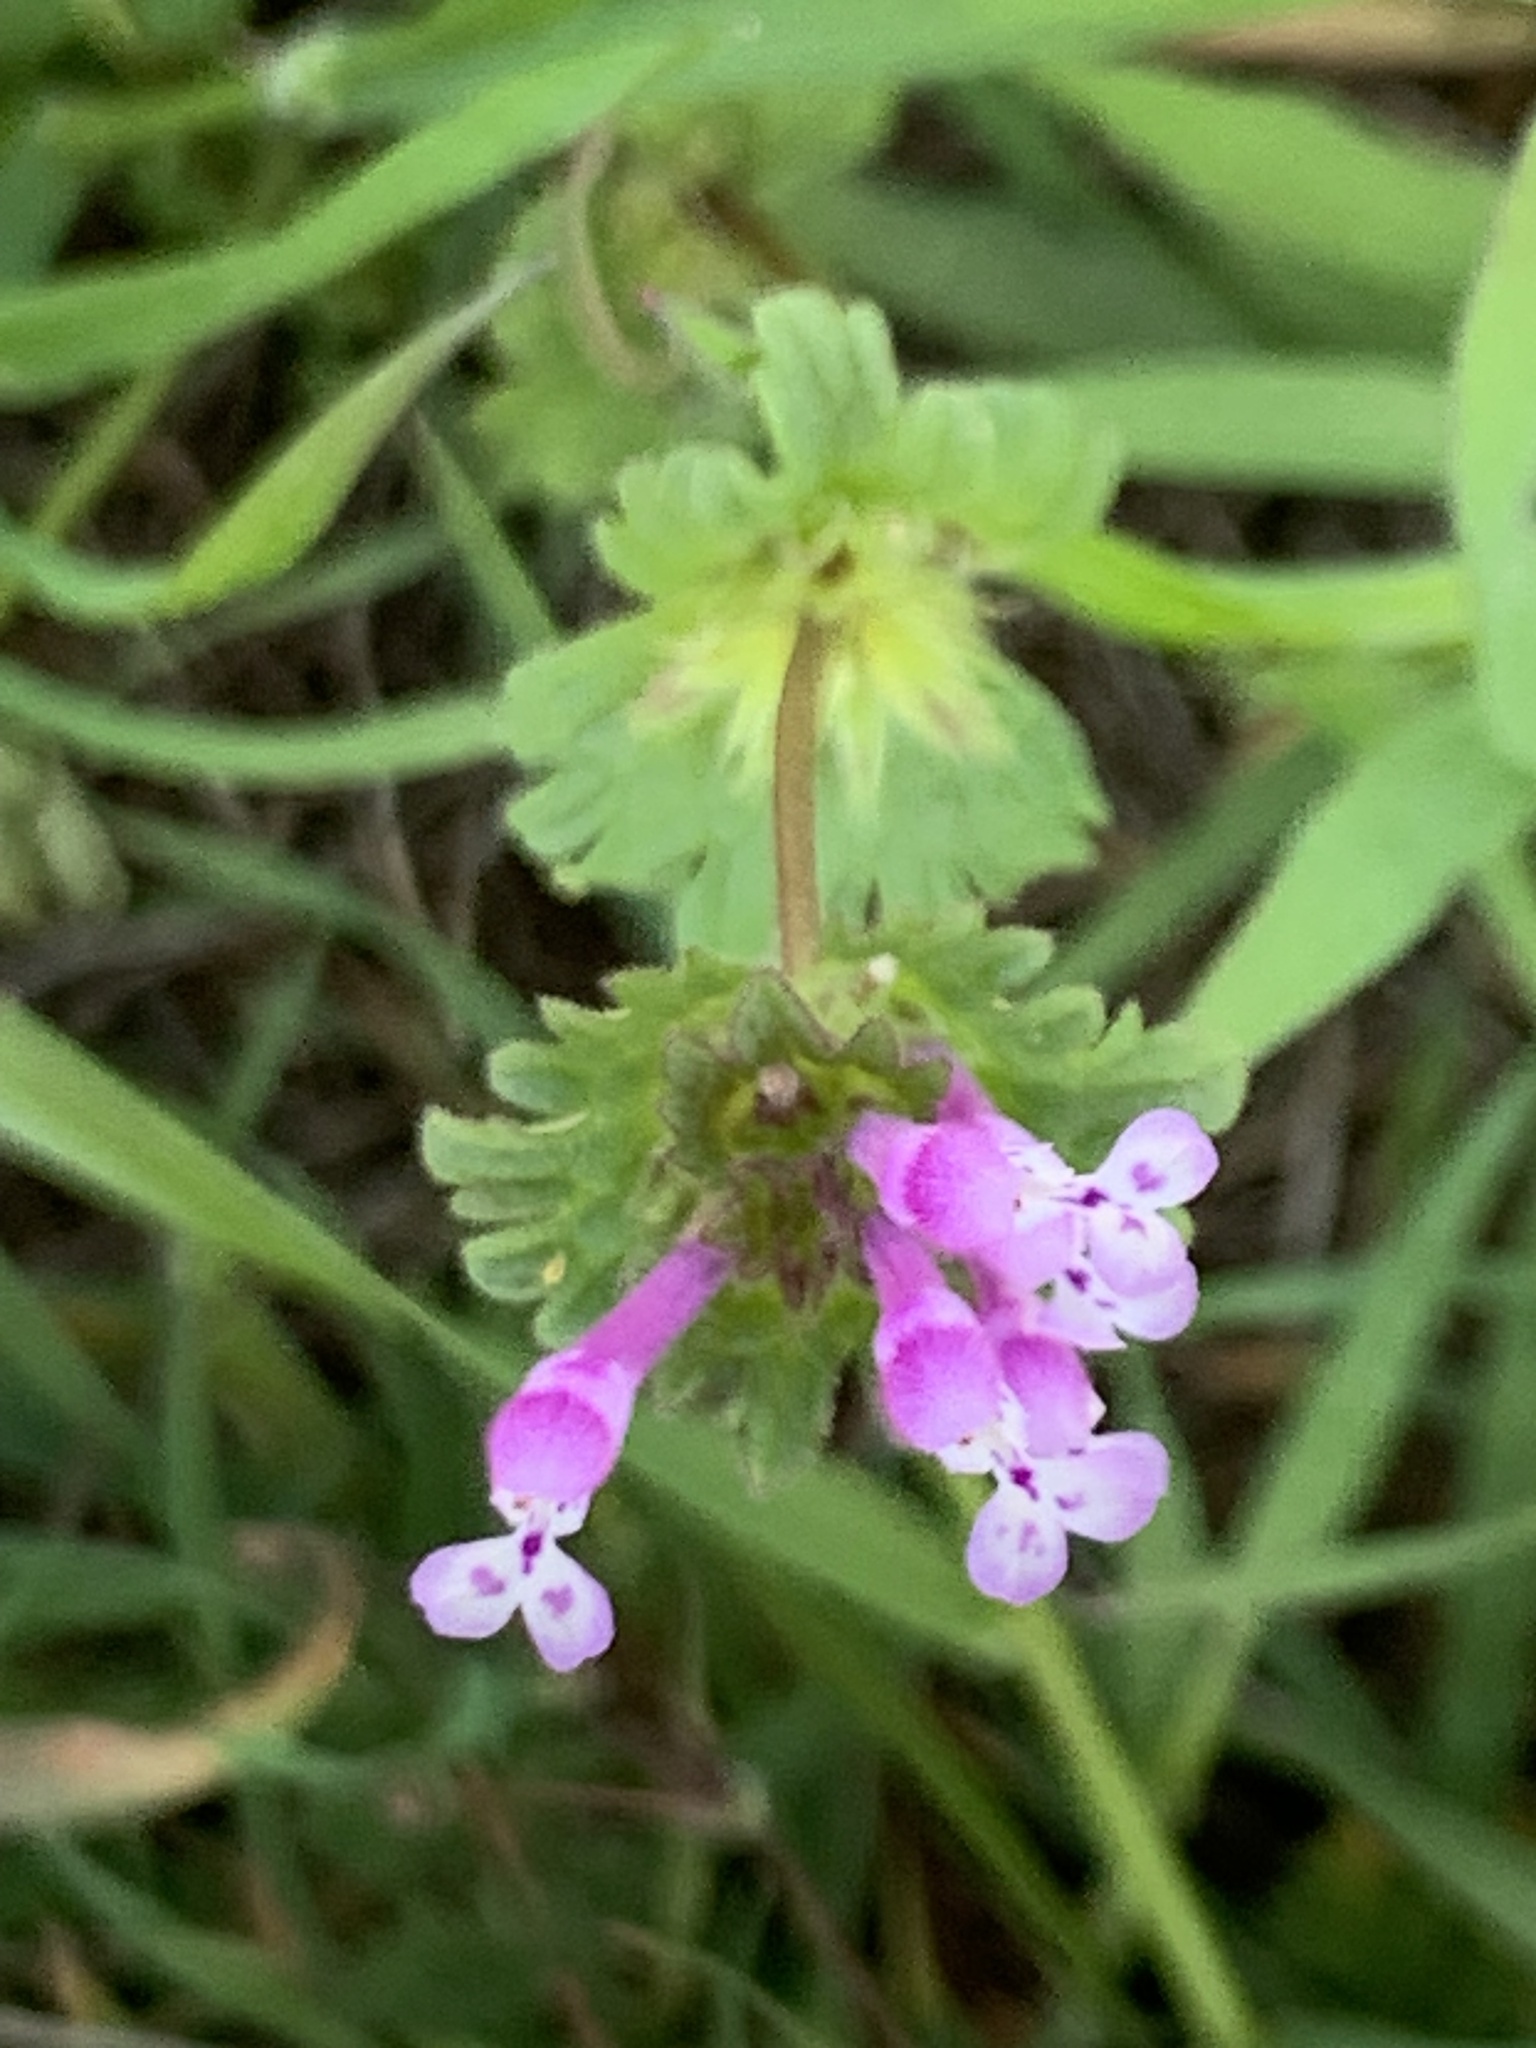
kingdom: Plantae
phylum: Tracheophyta
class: Magnoliopsida
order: Lamiales
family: Lamiaceae
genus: Lamium
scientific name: Lamium amplexicaule
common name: Henbit dead-nettle
